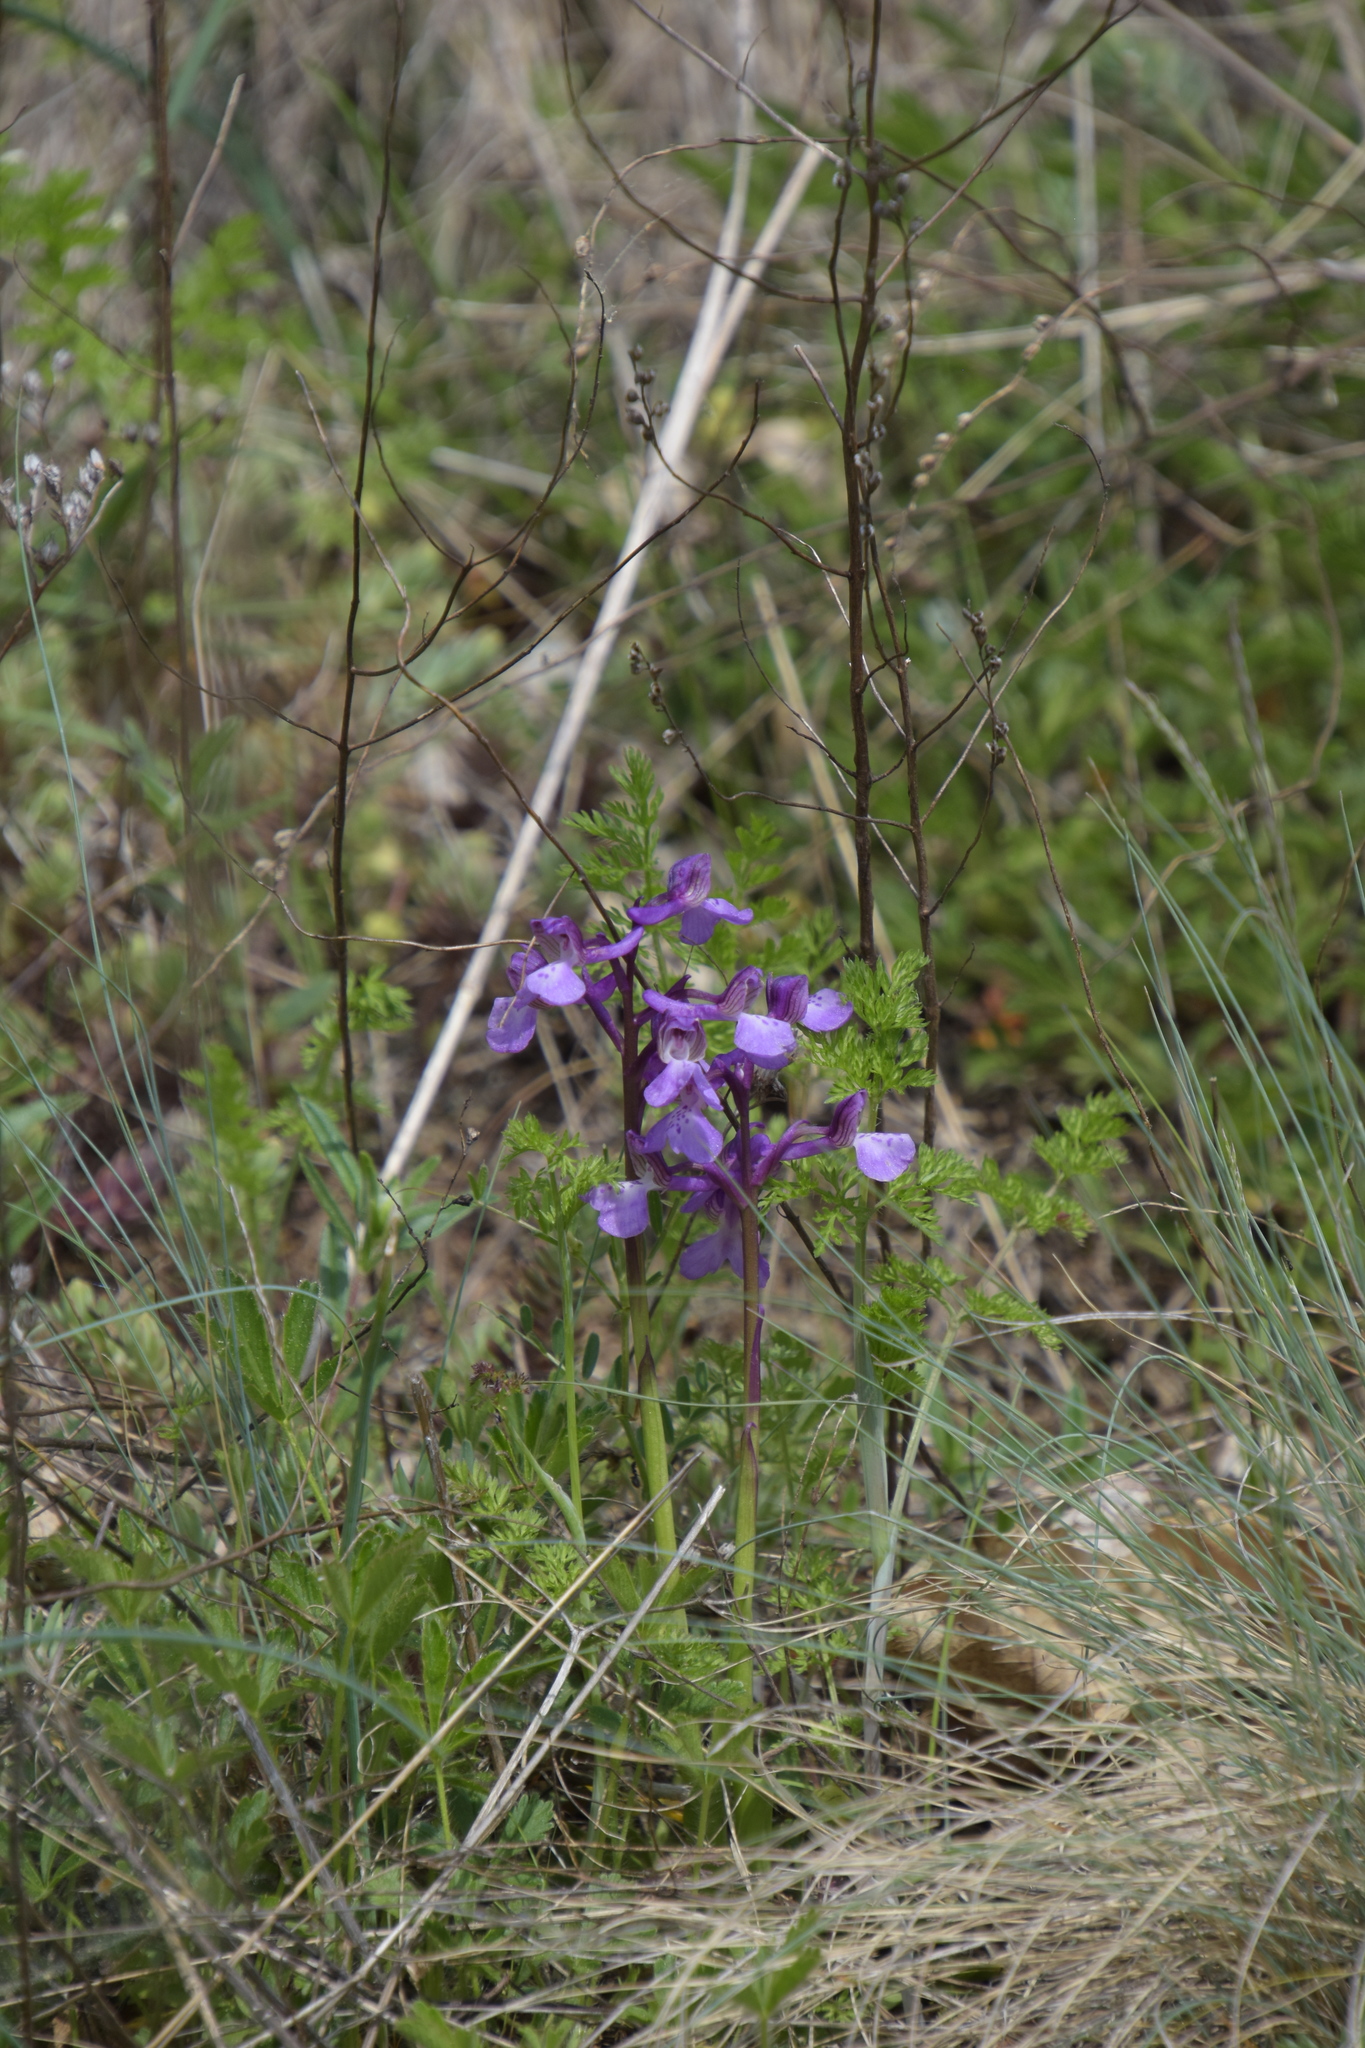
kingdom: Plantae
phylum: Tracheophyta
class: Liliopsida
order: Asparagales
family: Orchidaceae
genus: Anacamptis
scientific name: Anacamptis morio
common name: Green-winged orchid
